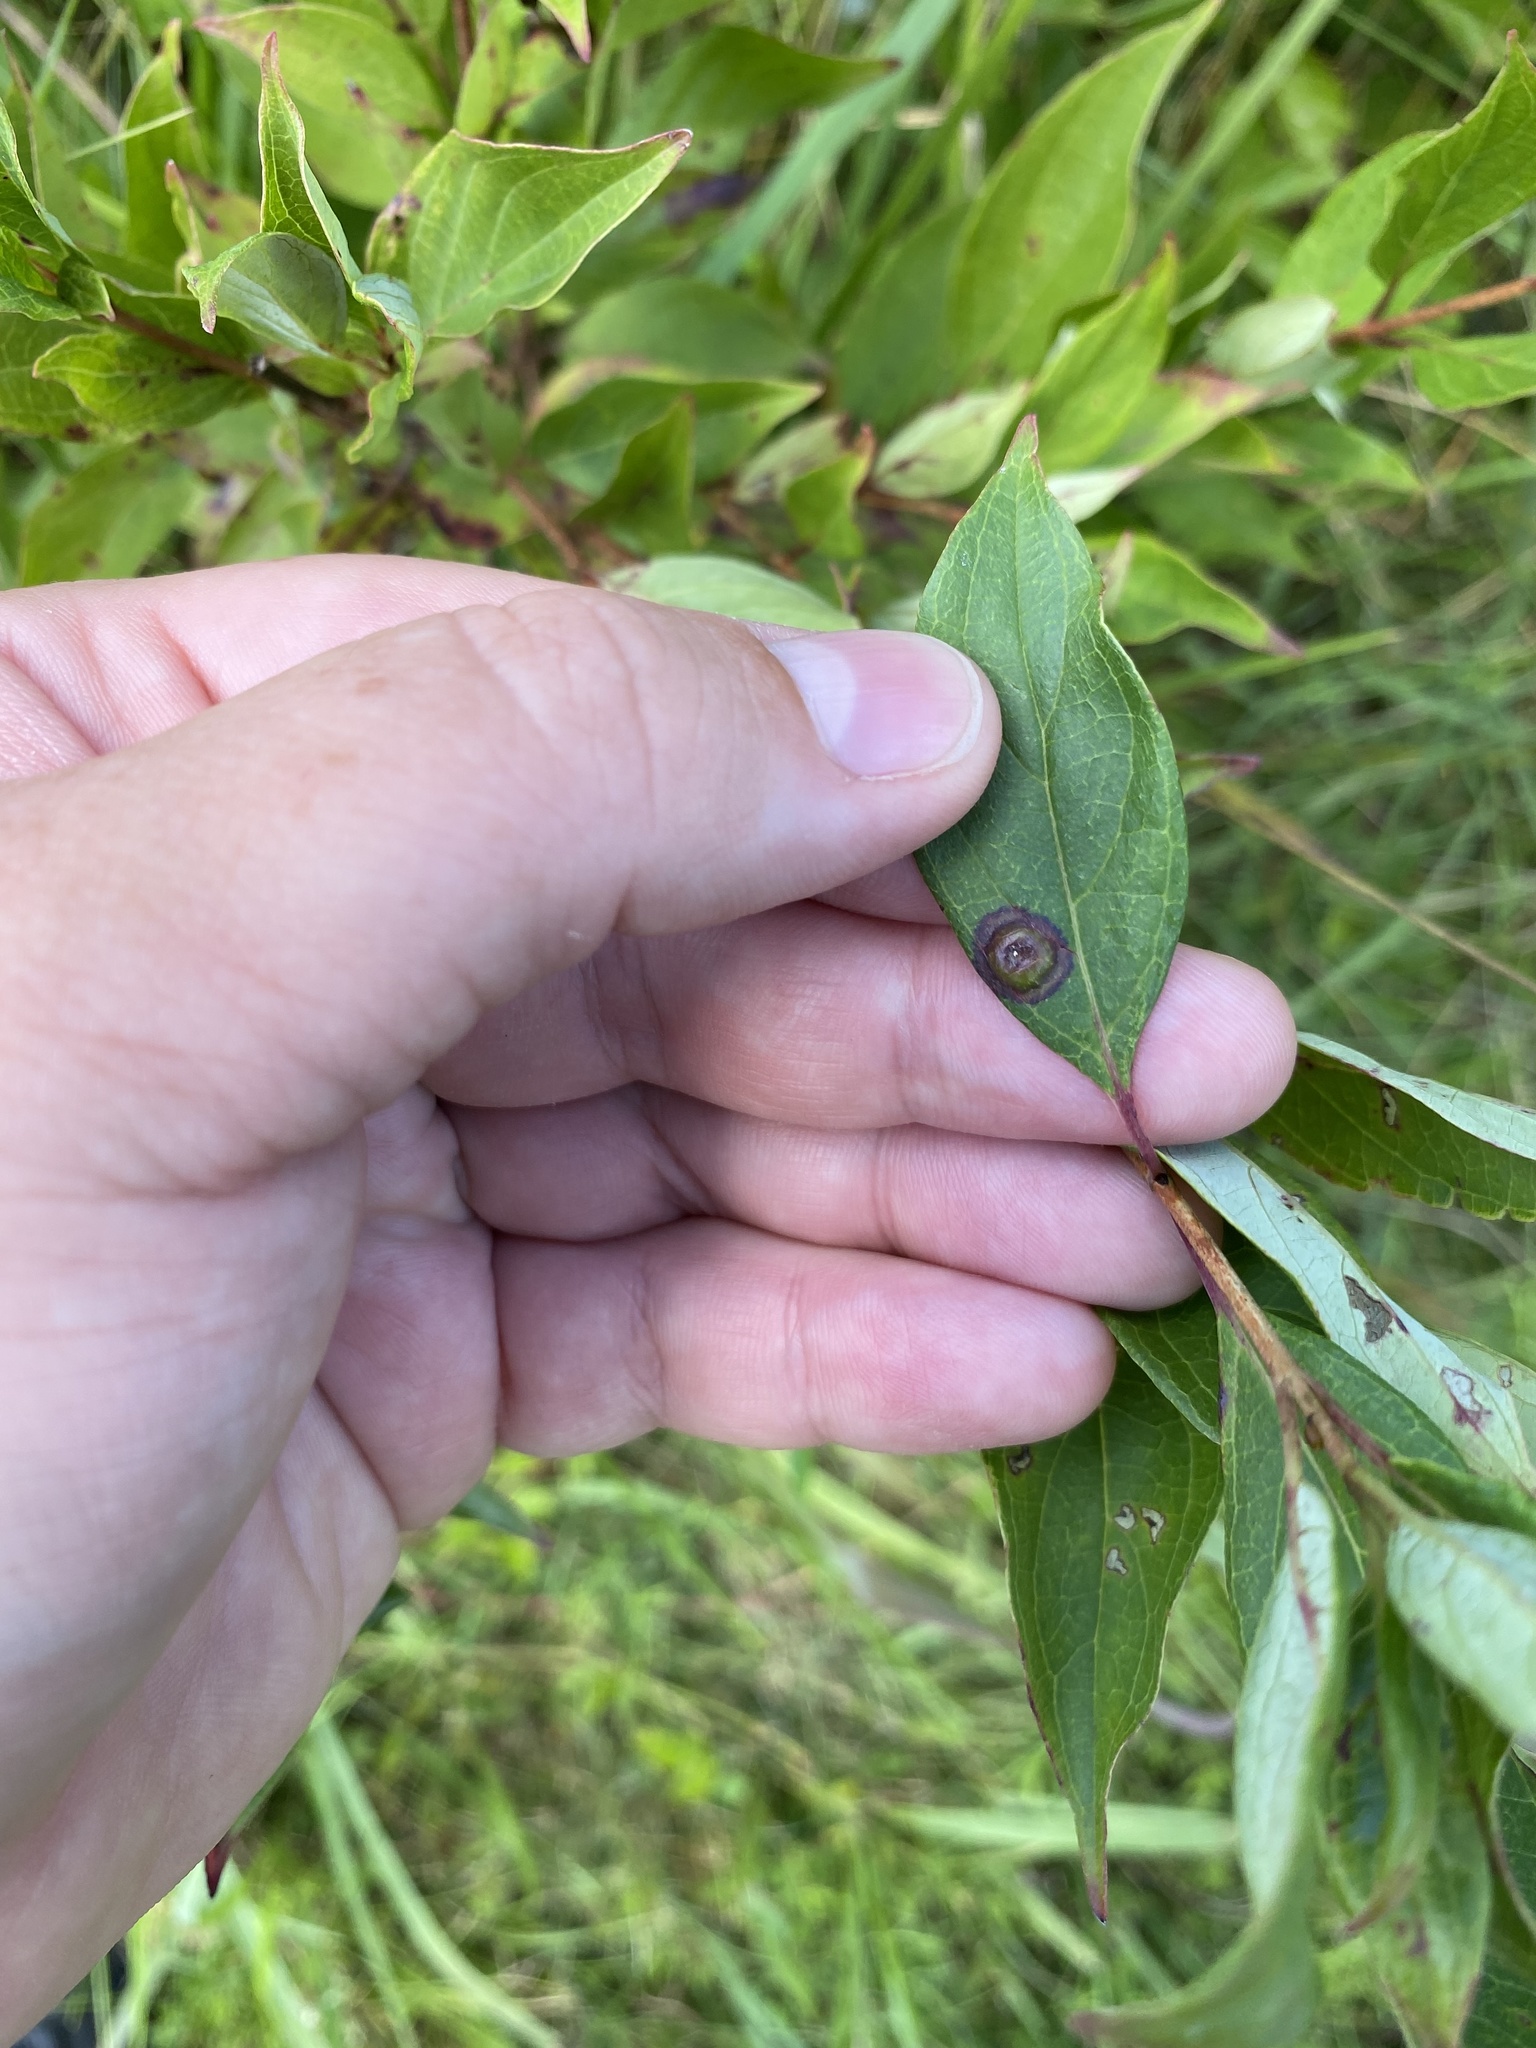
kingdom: Animalia
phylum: Arthropoda
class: Insecta
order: Diptera
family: Cecidomyiidae
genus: Parallelodiplosis
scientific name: Parallelodiplosis subtruncata
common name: Dogwood eyespot gall midge
